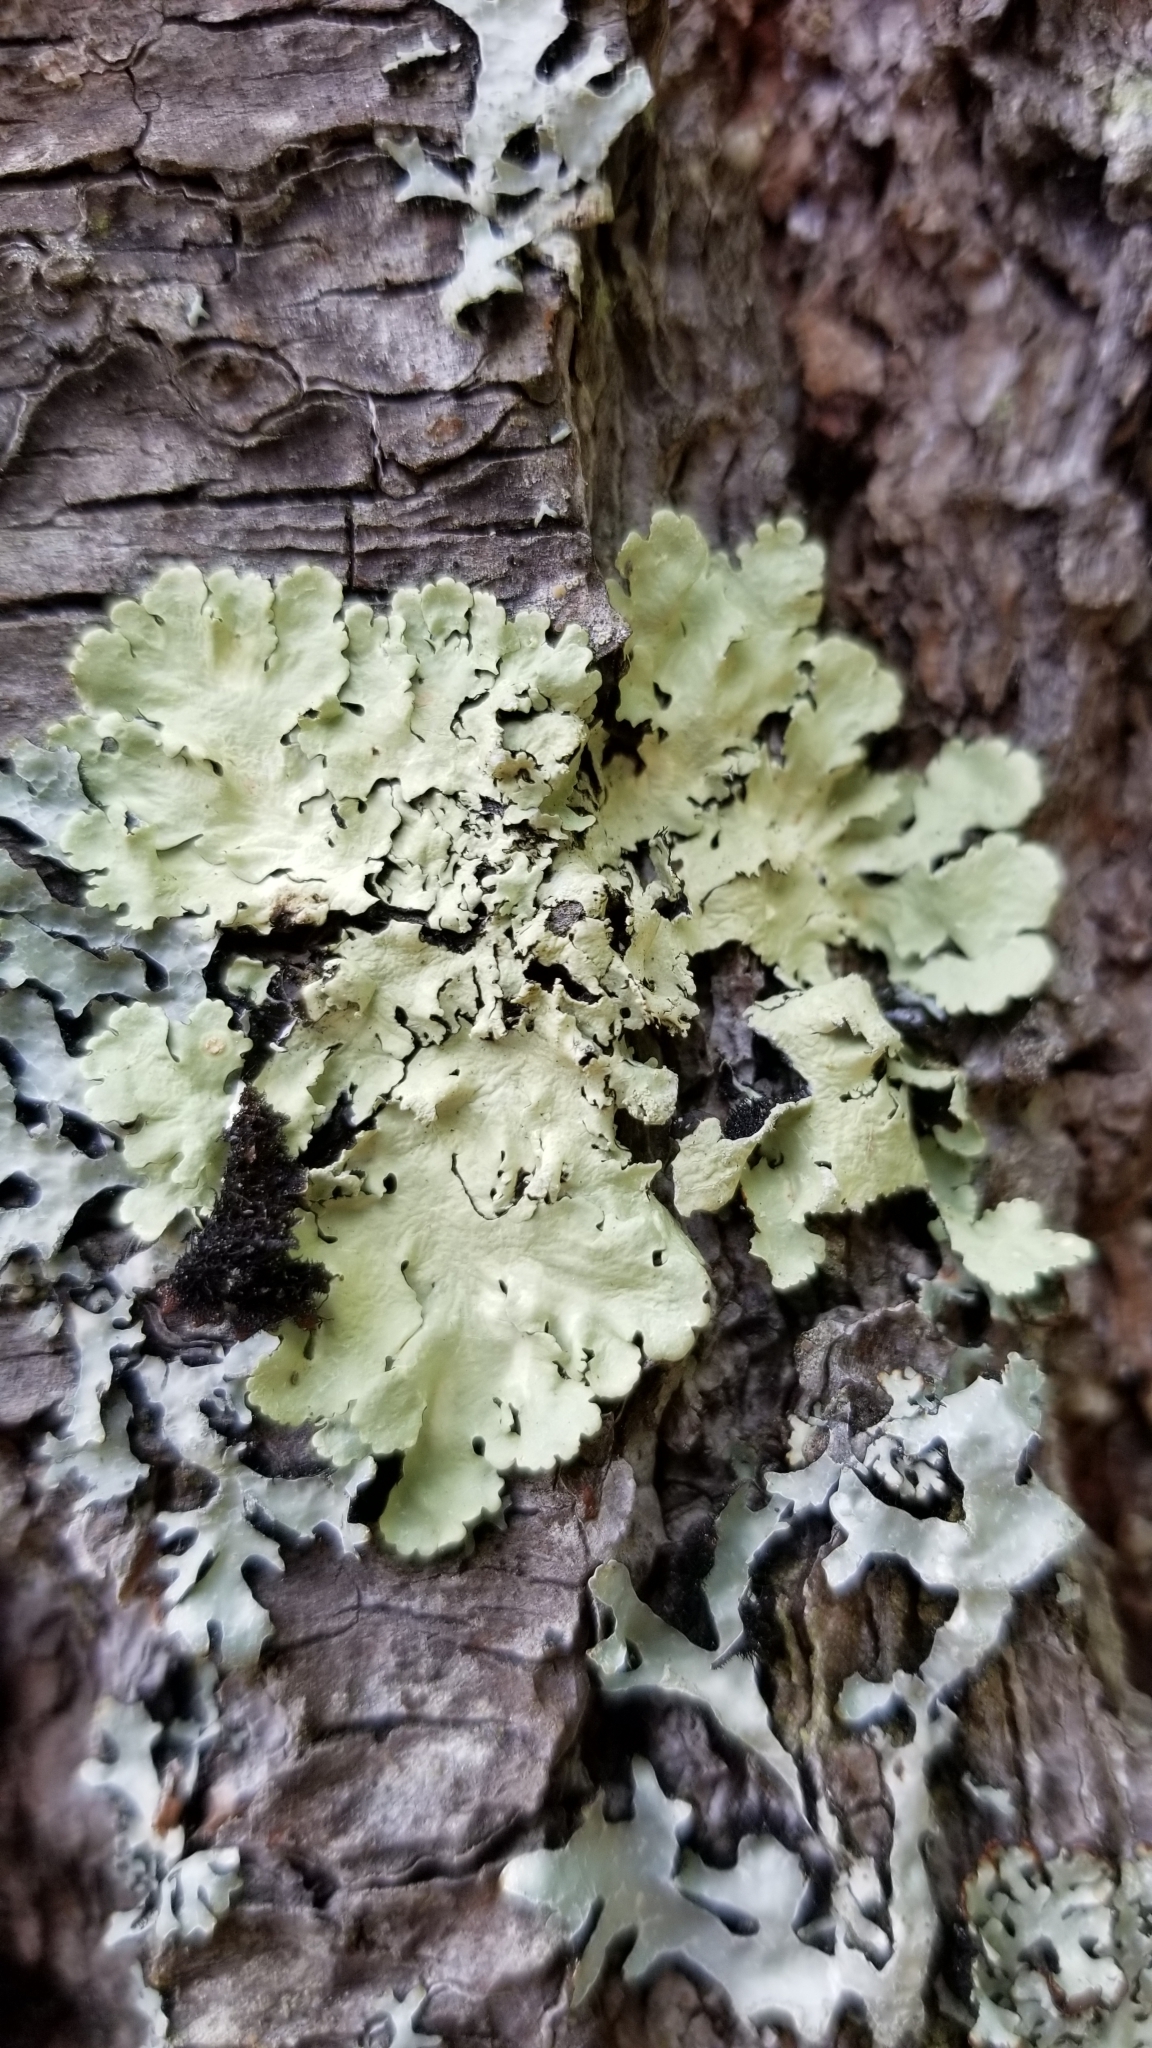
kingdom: Fungi
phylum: Ascomycota
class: Lecanoromycetes
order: Lecanorales
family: Parmeliaceae
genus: Flavoparmelia
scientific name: Flavoparmelia caperata
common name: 40-mile per hour lichen
